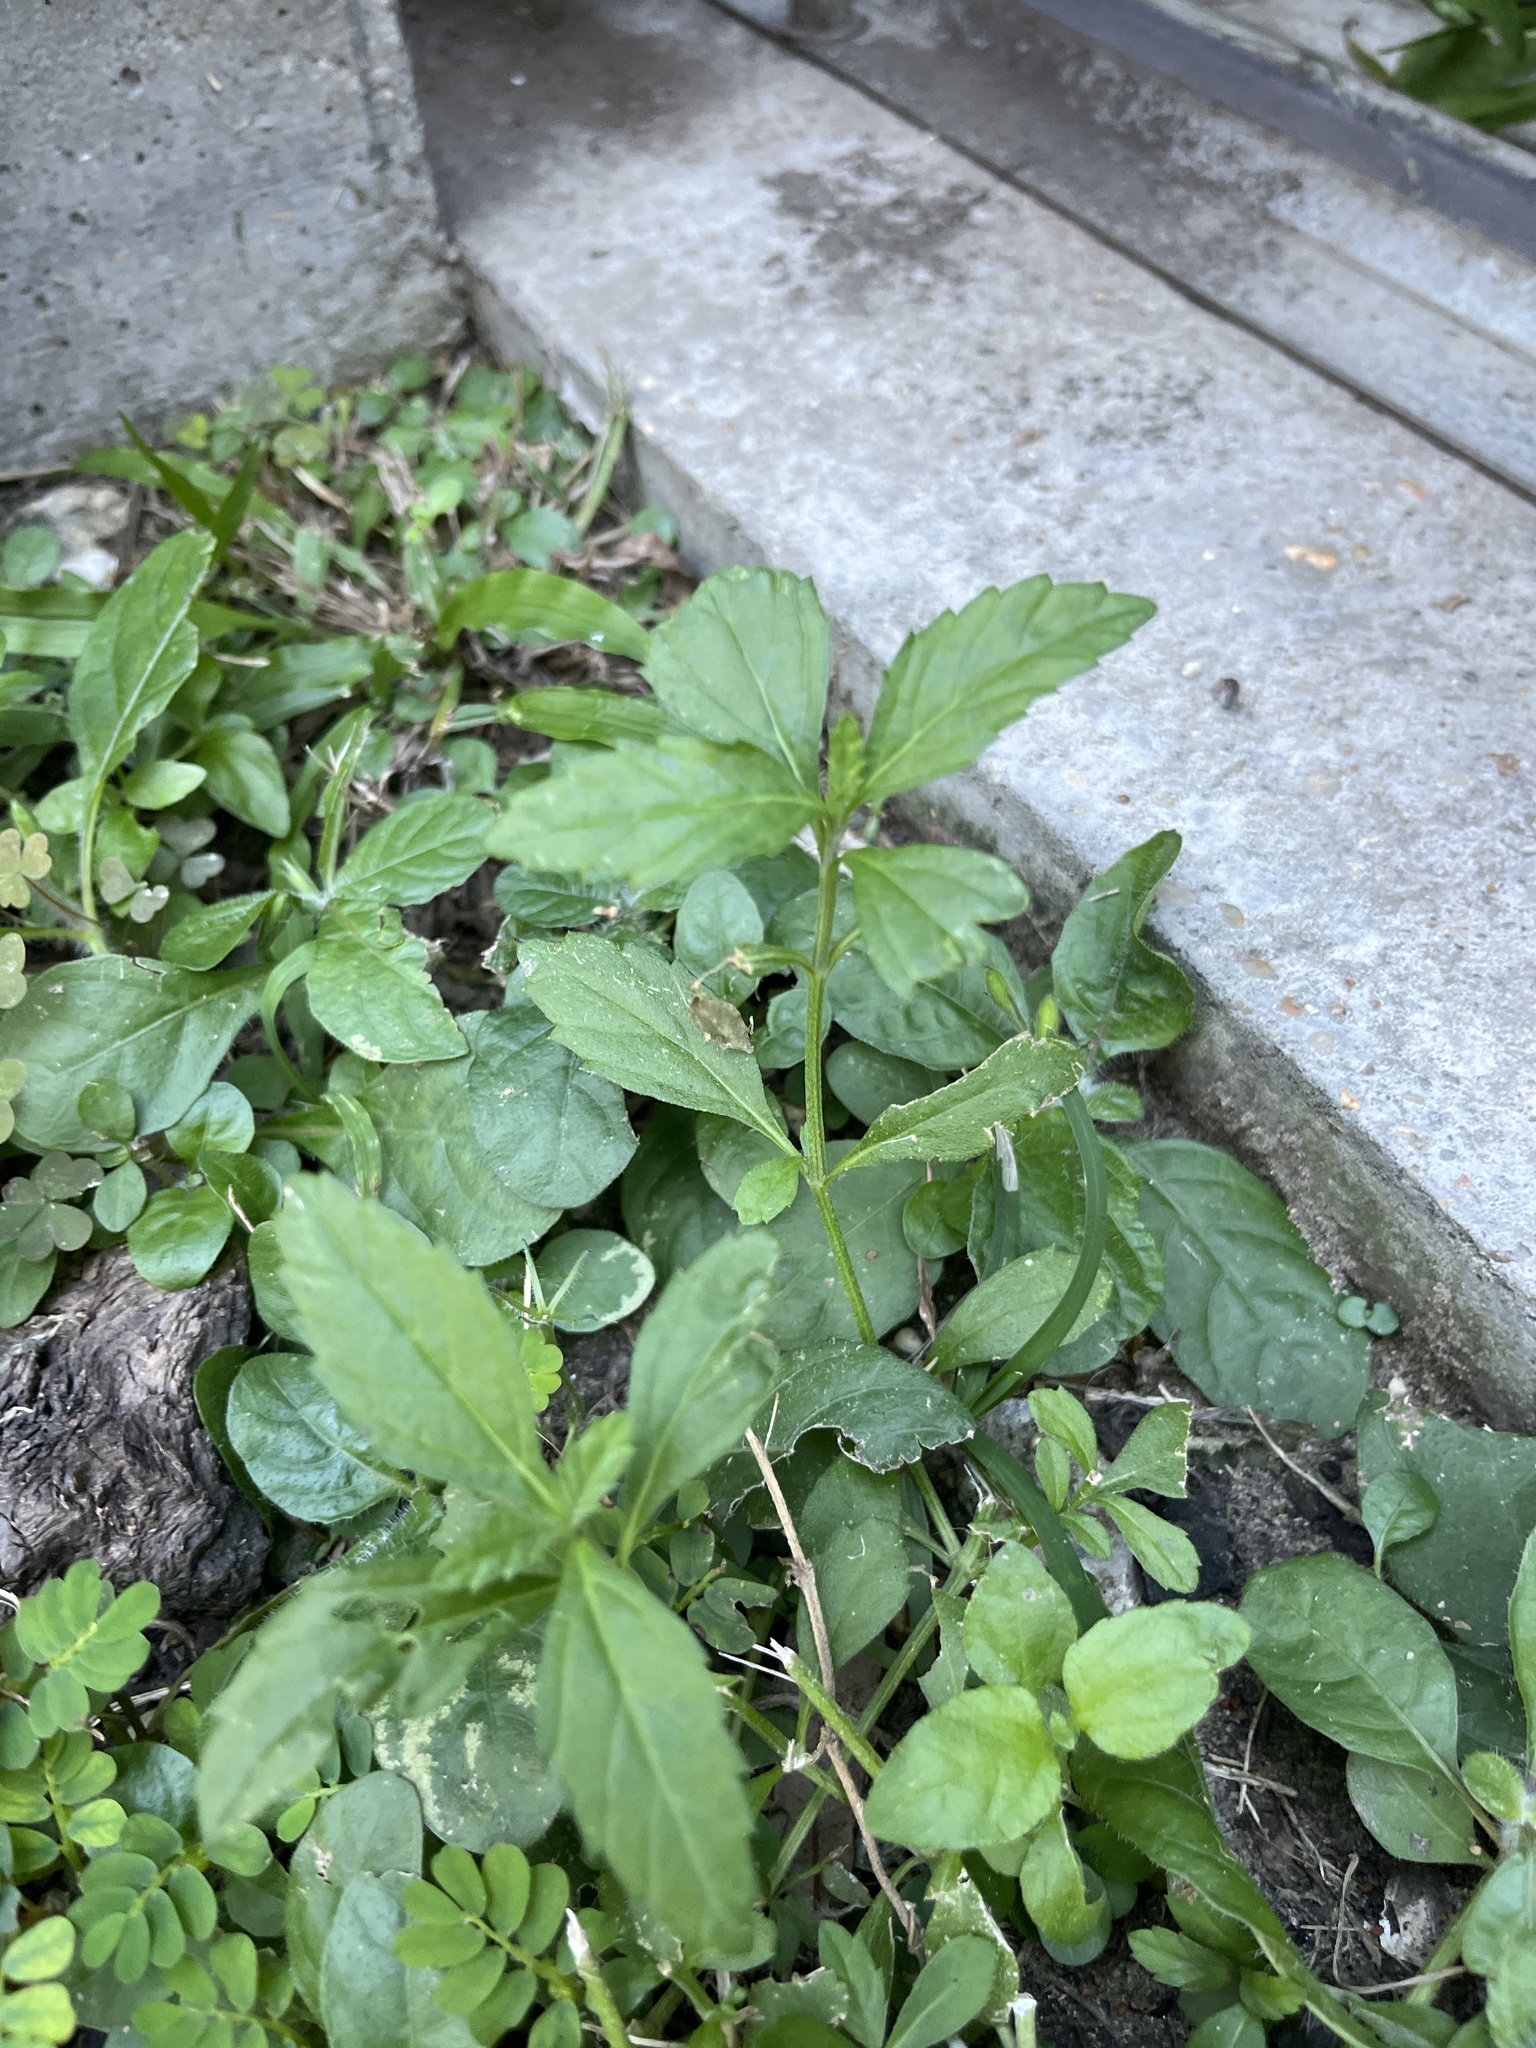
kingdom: Plantae
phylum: Tracheophyta
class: Magnoliopsida
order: Lamiales
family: Verbenaceae
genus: Phyla
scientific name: Phyla lanceolata
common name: Northern fogfruit
